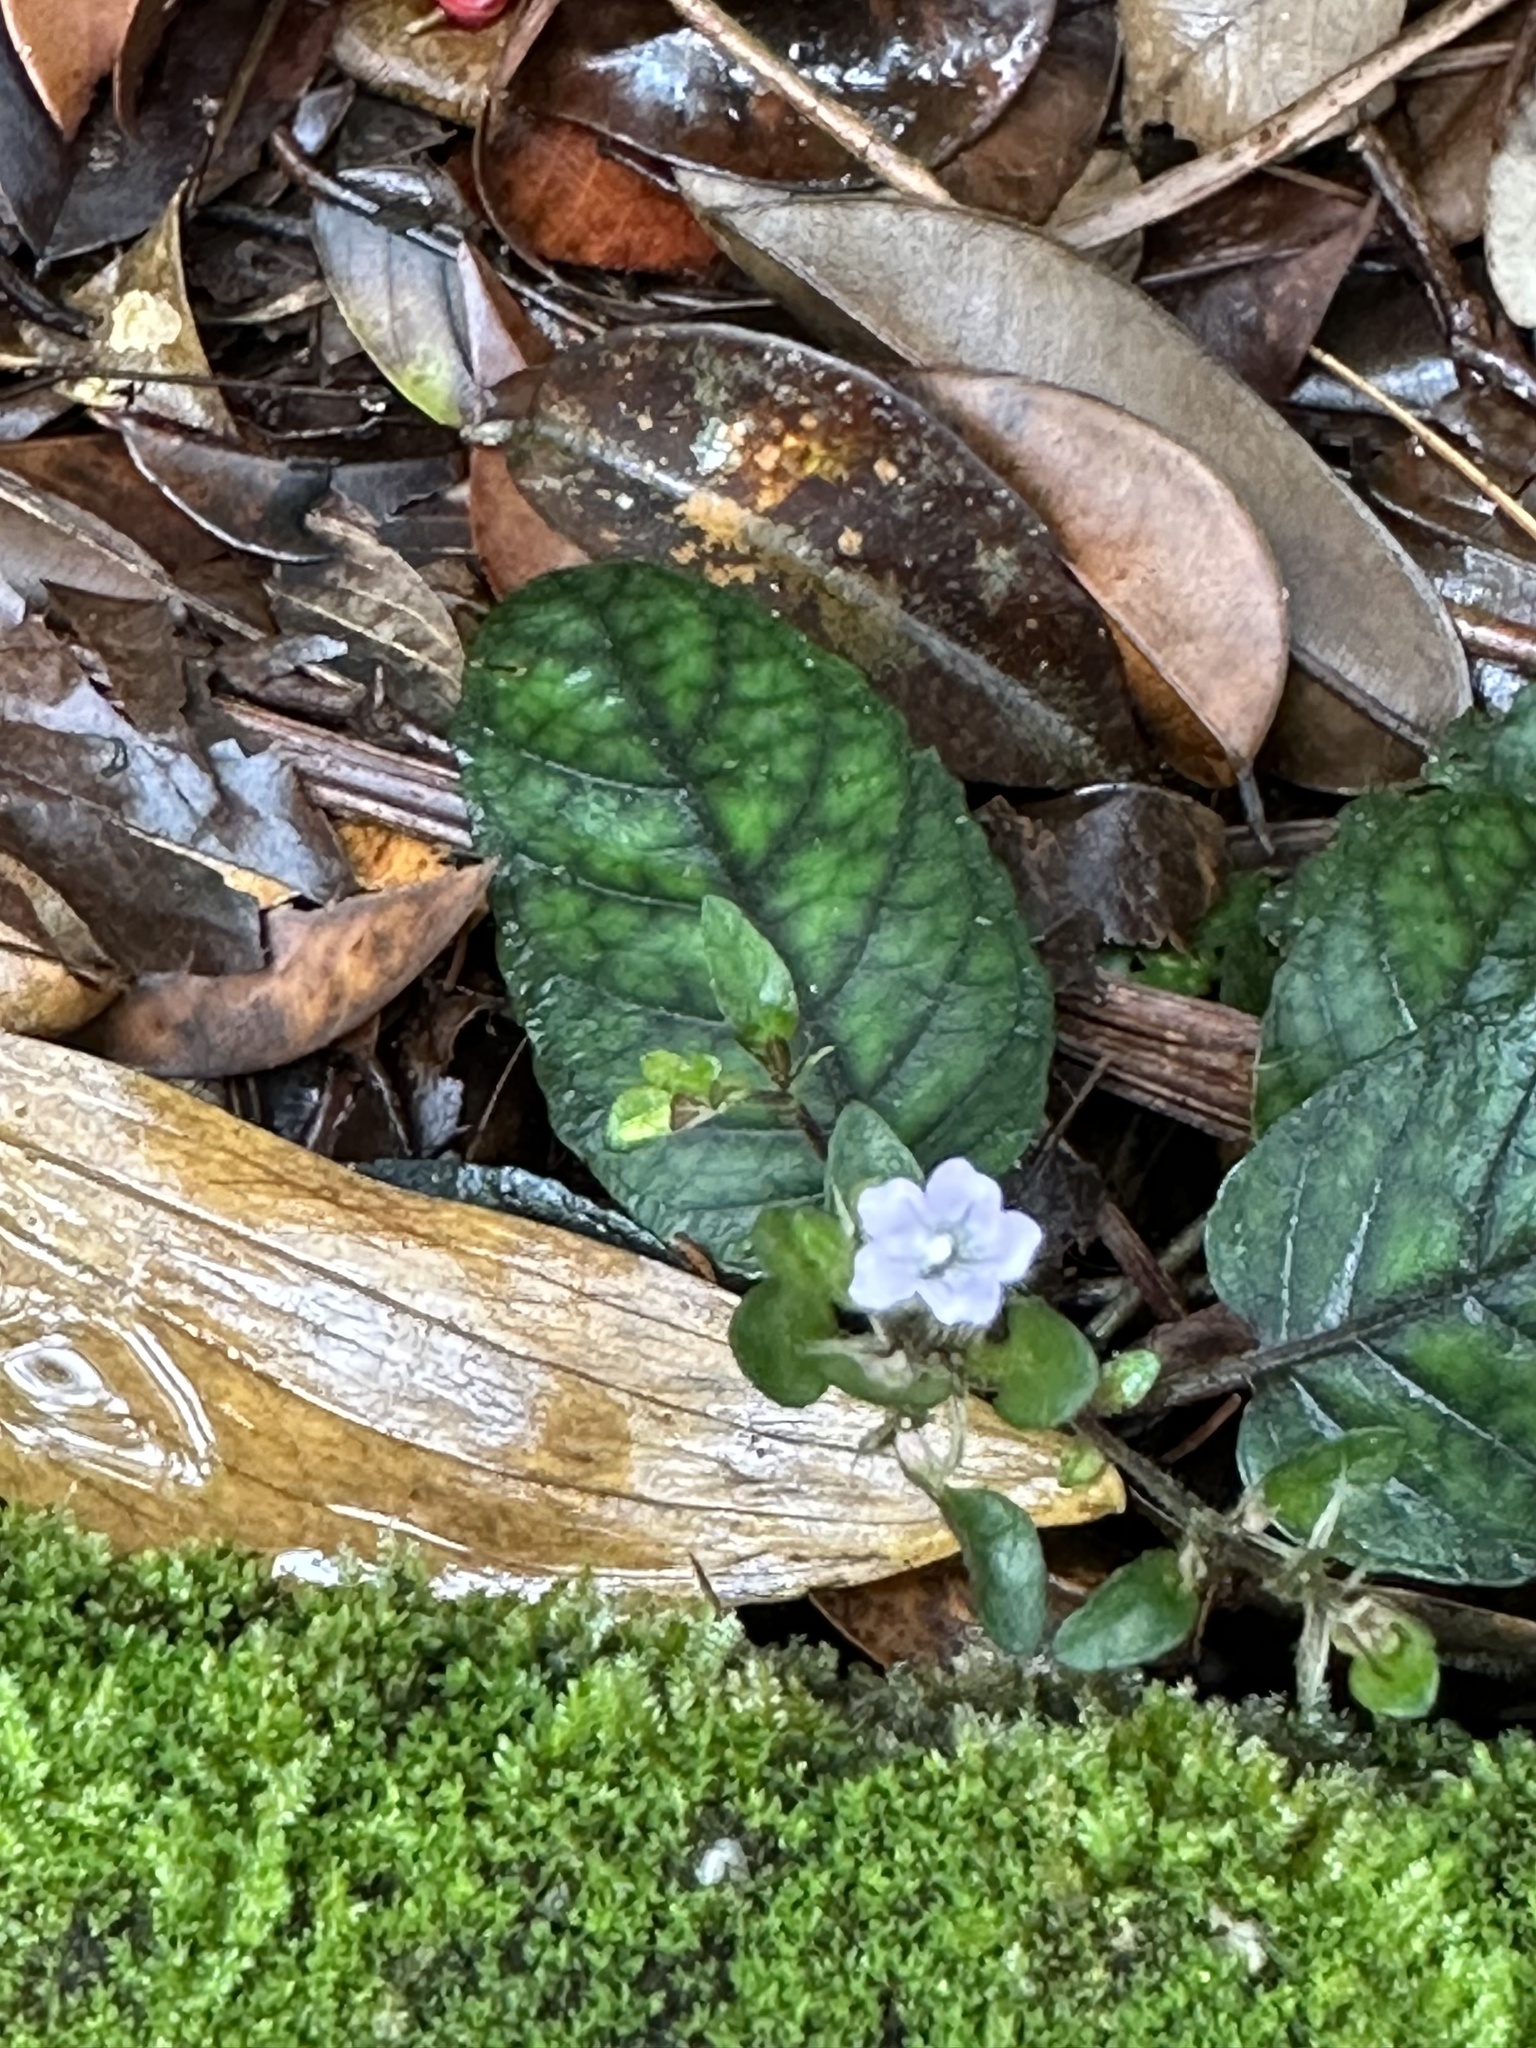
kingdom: Plantae
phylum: Tracheophyta
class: Magnoliopsida
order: Lamiales
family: Acanthaceae
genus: Strobilanthes
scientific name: Strobilanthes reptans
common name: Acanthaceae
